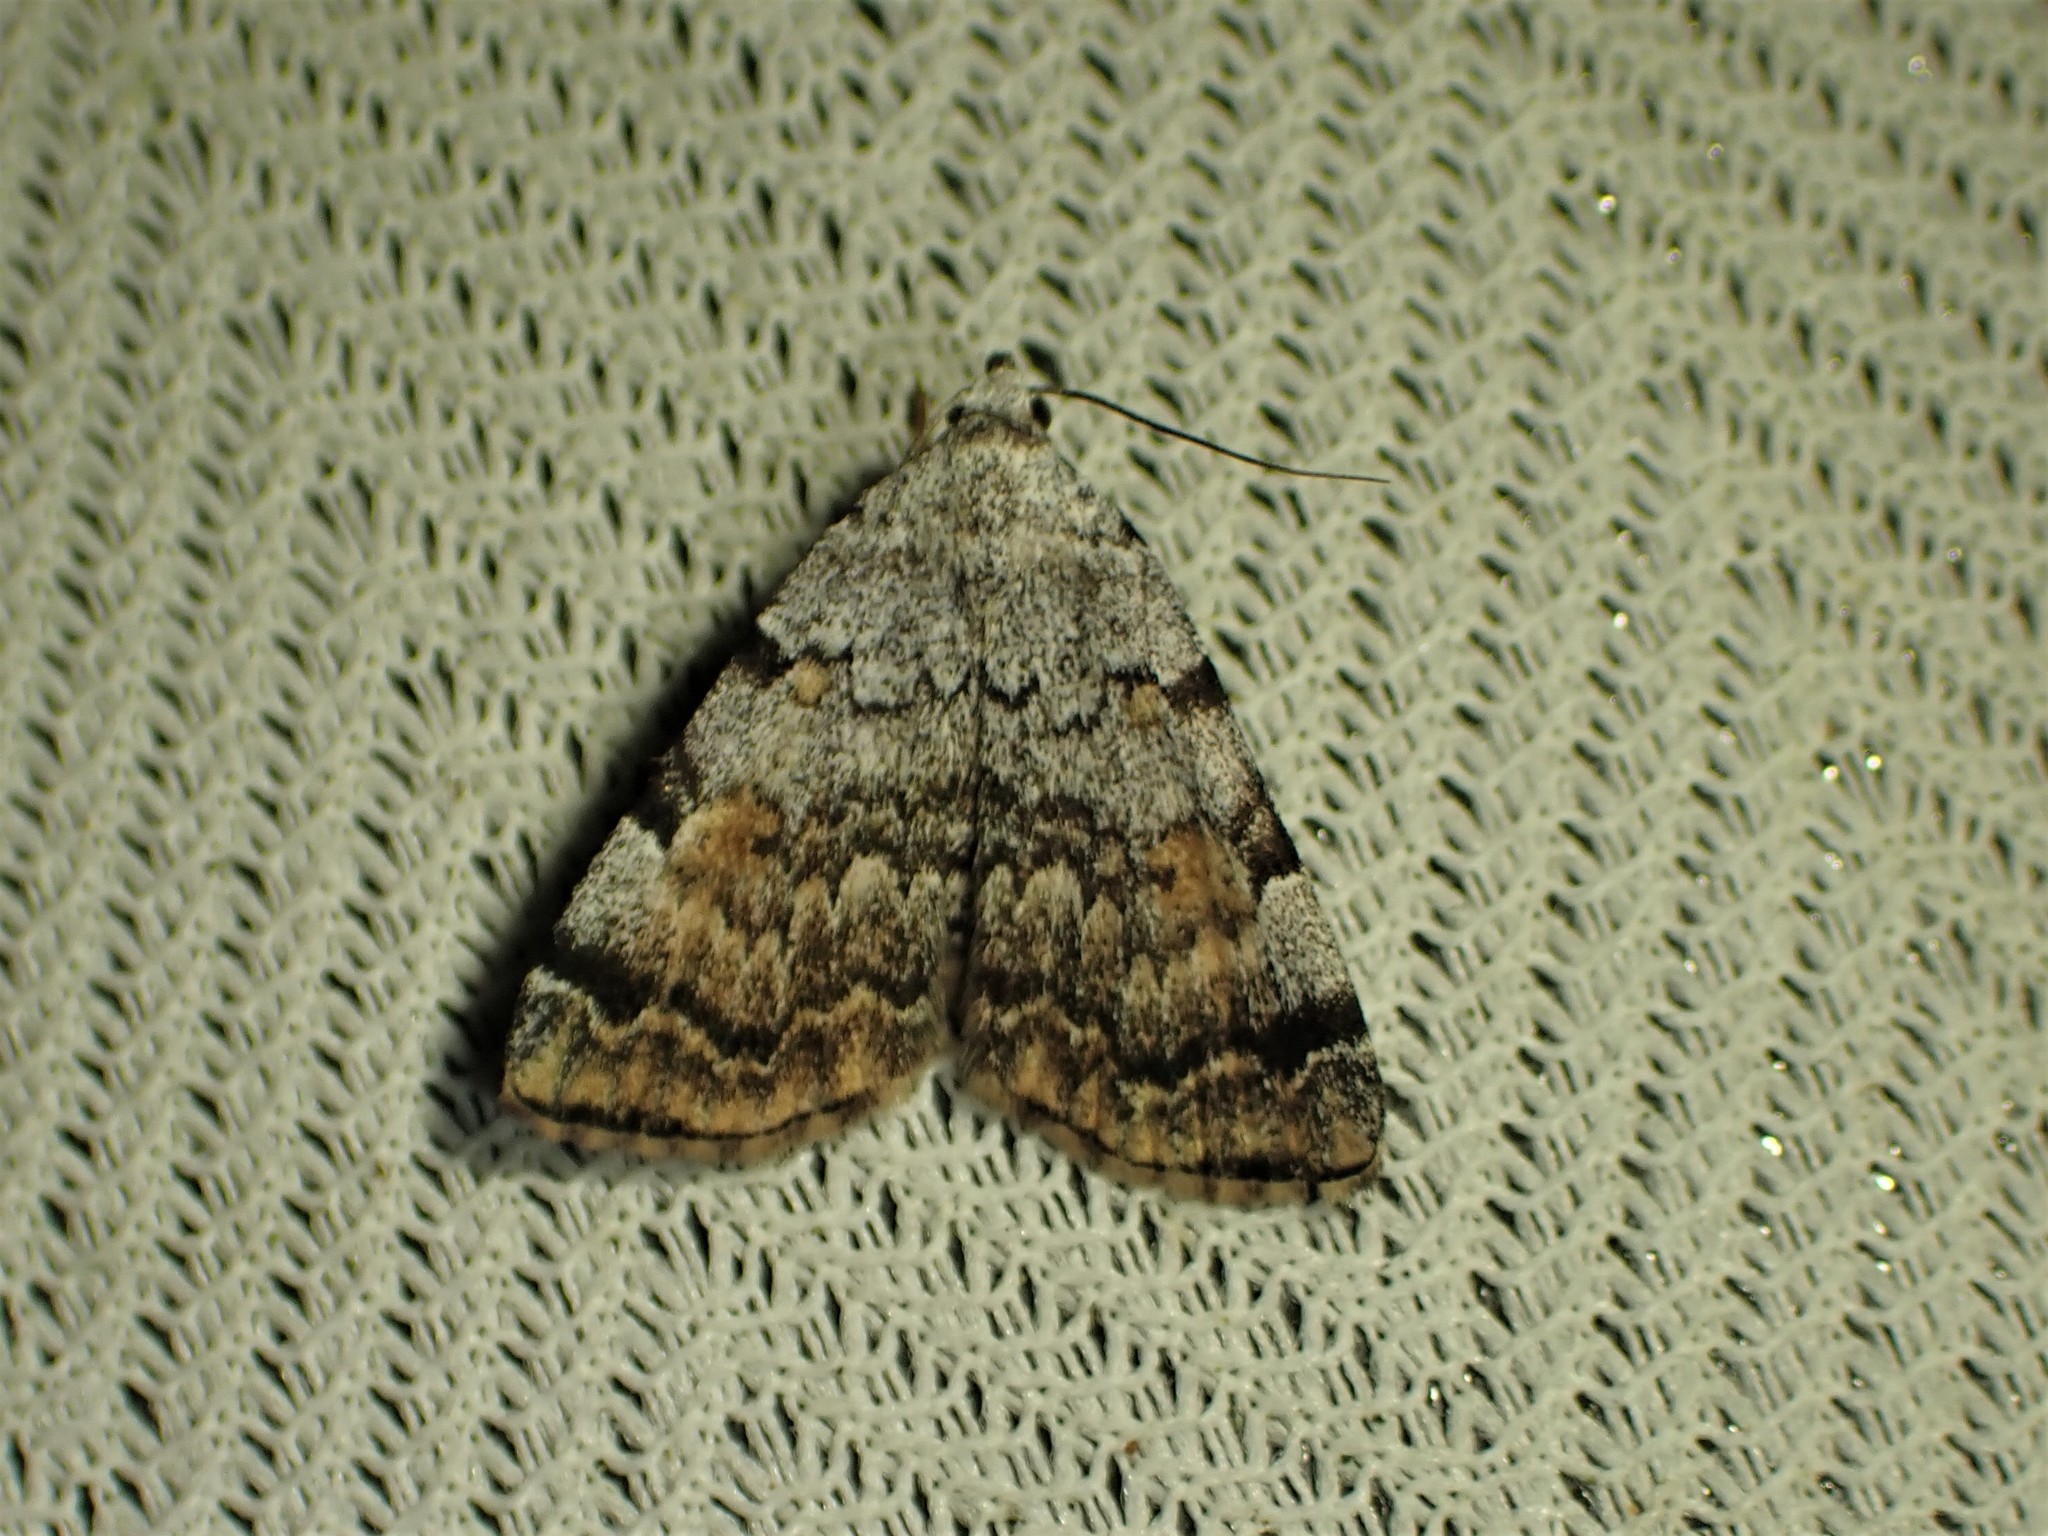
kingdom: Animalia
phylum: Arthropoda
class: Insecta
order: Lepidoptera
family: Erebidae
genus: Idia
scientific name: Idia americalis
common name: American idia moth
